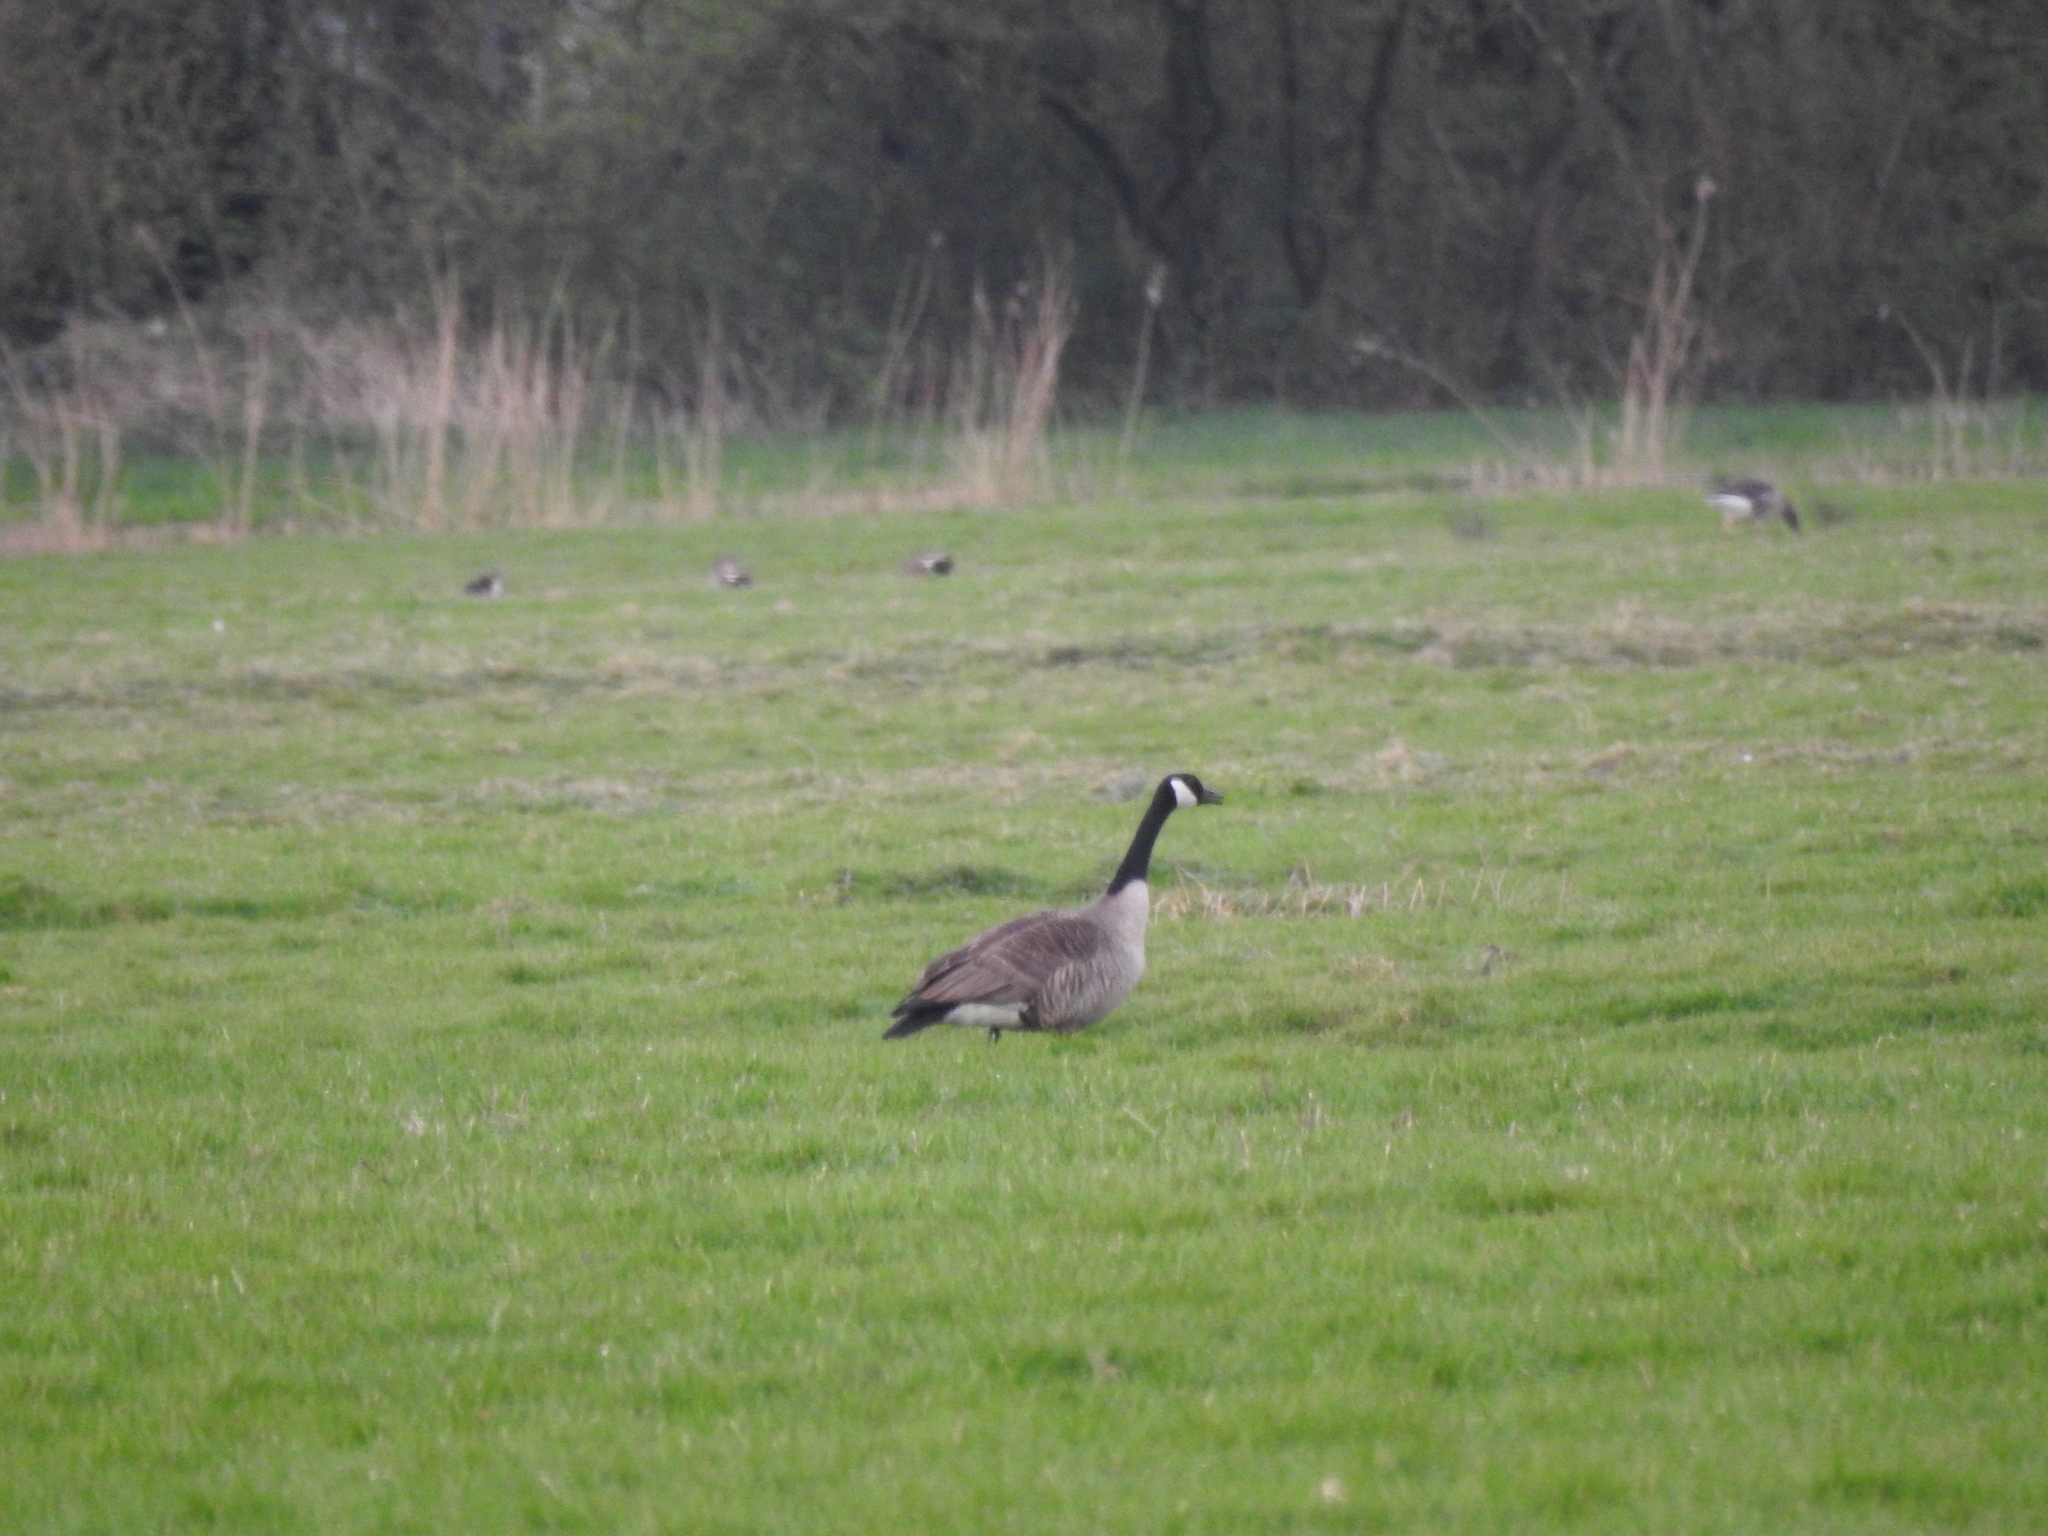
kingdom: Animalia
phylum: Chordata
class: Aves
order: Anseriformes
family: Anatidae
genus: Branta
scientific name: Branta canadensis
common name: Canada goose
